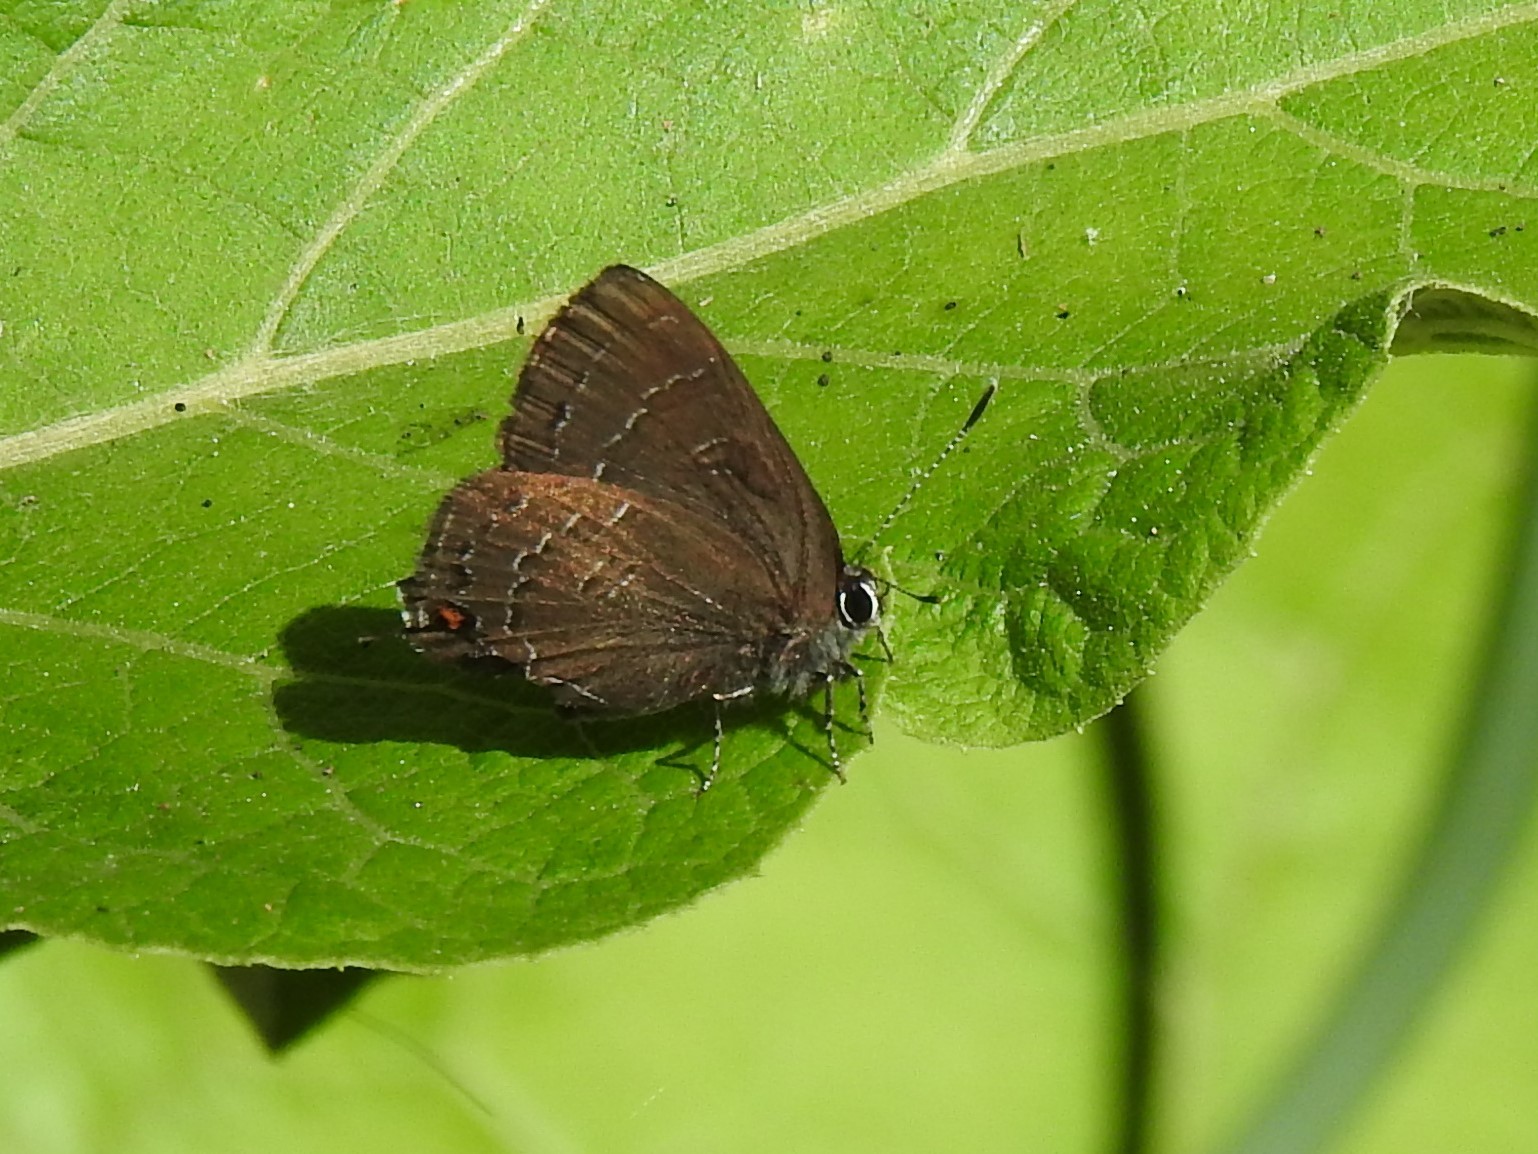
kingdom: Animalia
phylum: Arthropoda
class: Insecta
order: Lepidoptera
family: Lycaenidae
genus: Satyrium
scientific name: Satyrium calanus
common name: Banded hairstreak
